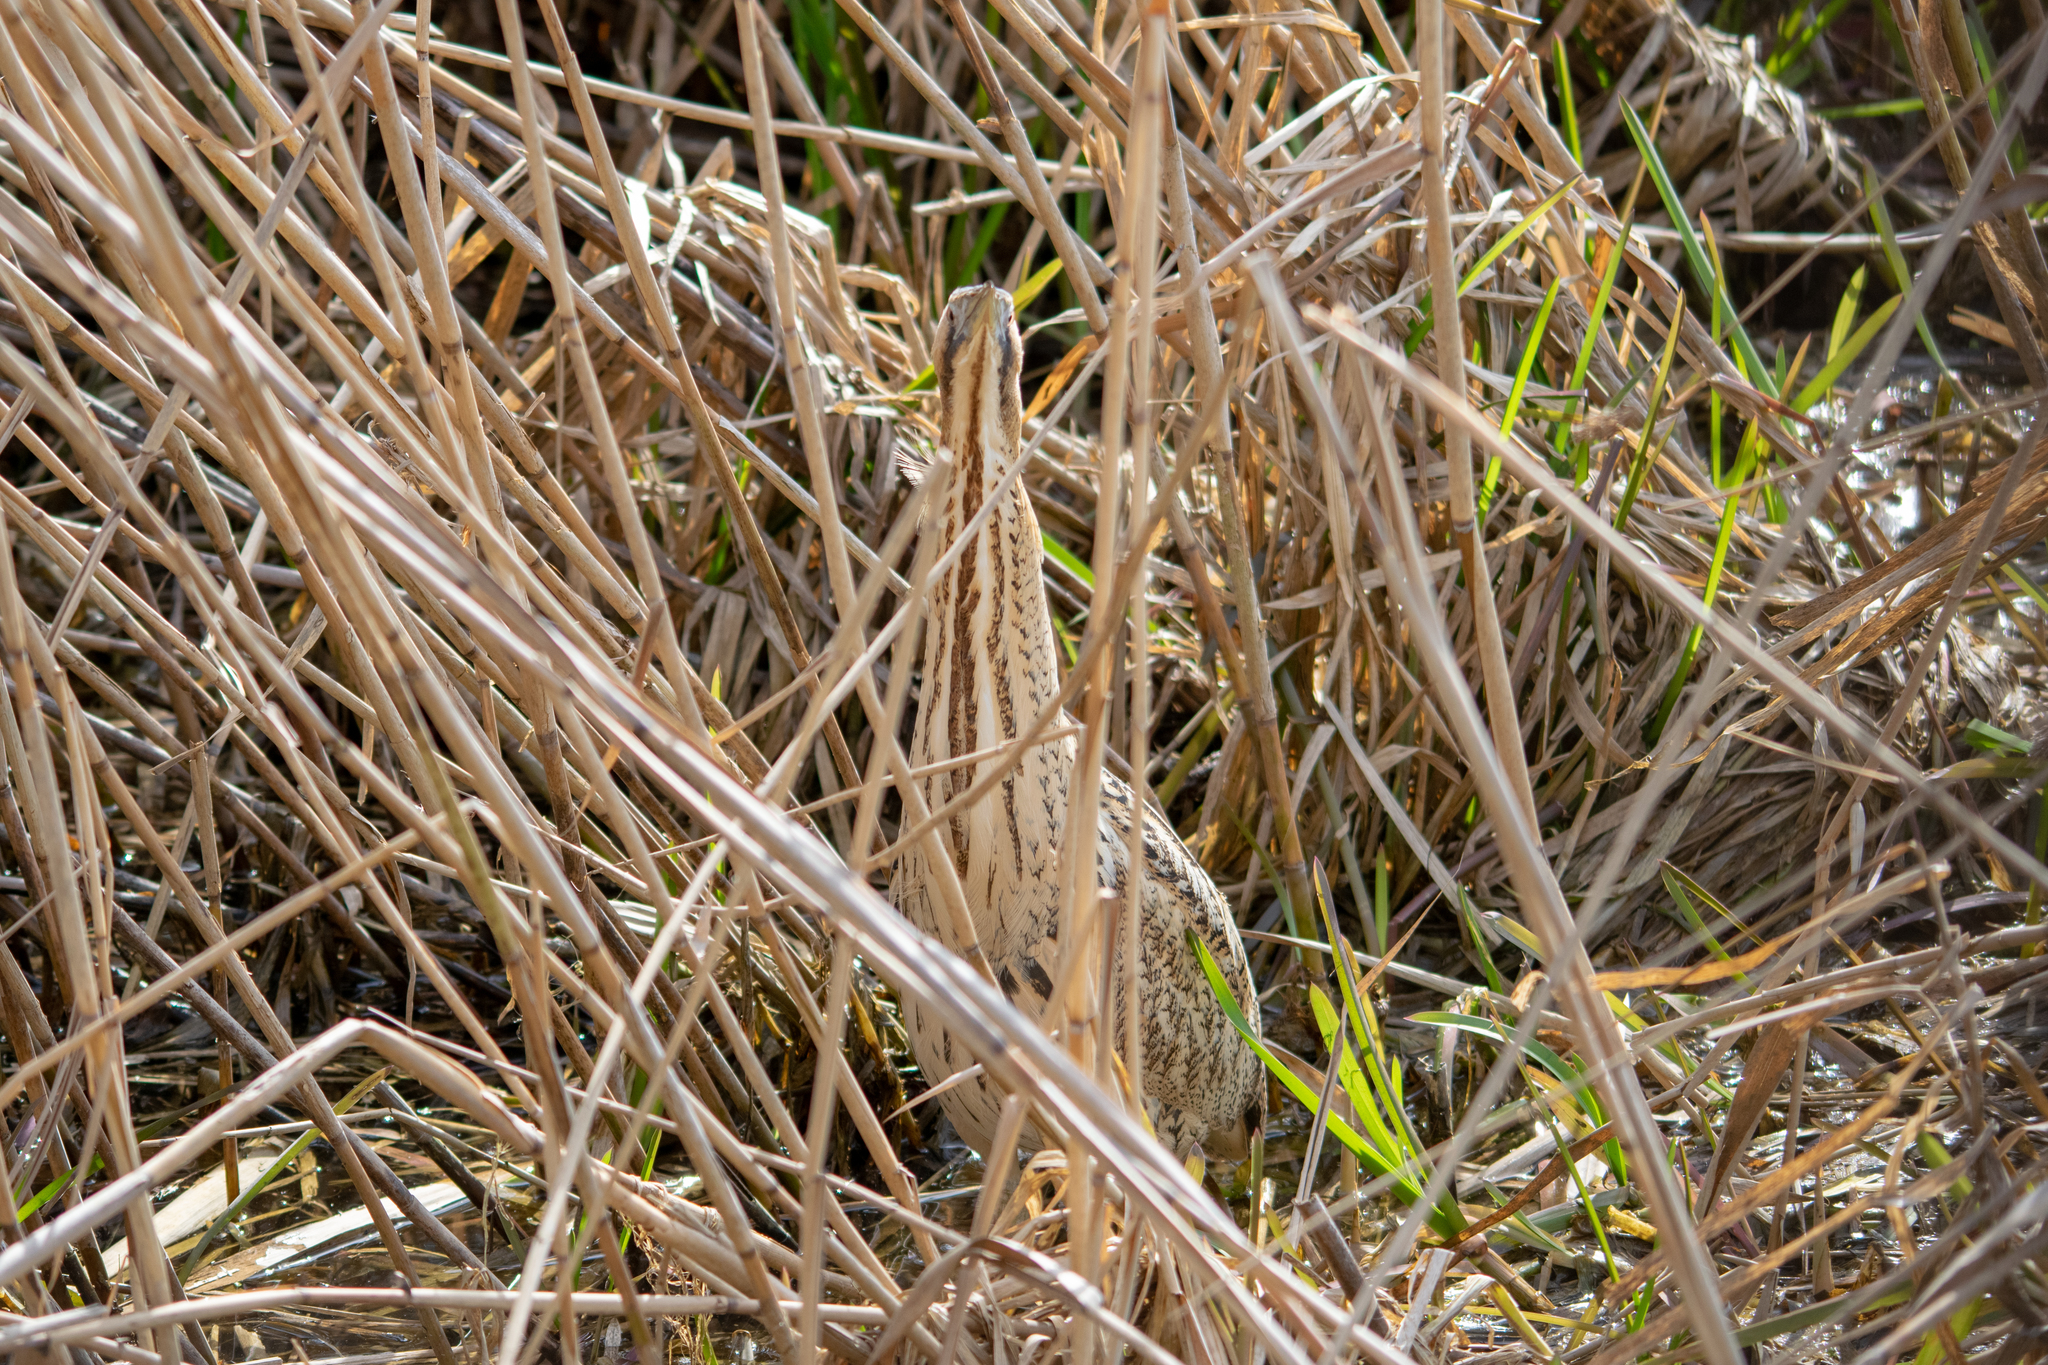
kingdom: Animalia
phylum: Chordata
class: Aves
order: Pelecaniformes
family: Ardeidae
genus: Botaurus
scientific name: Botaurus stellaris
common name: Eurasian bittern
